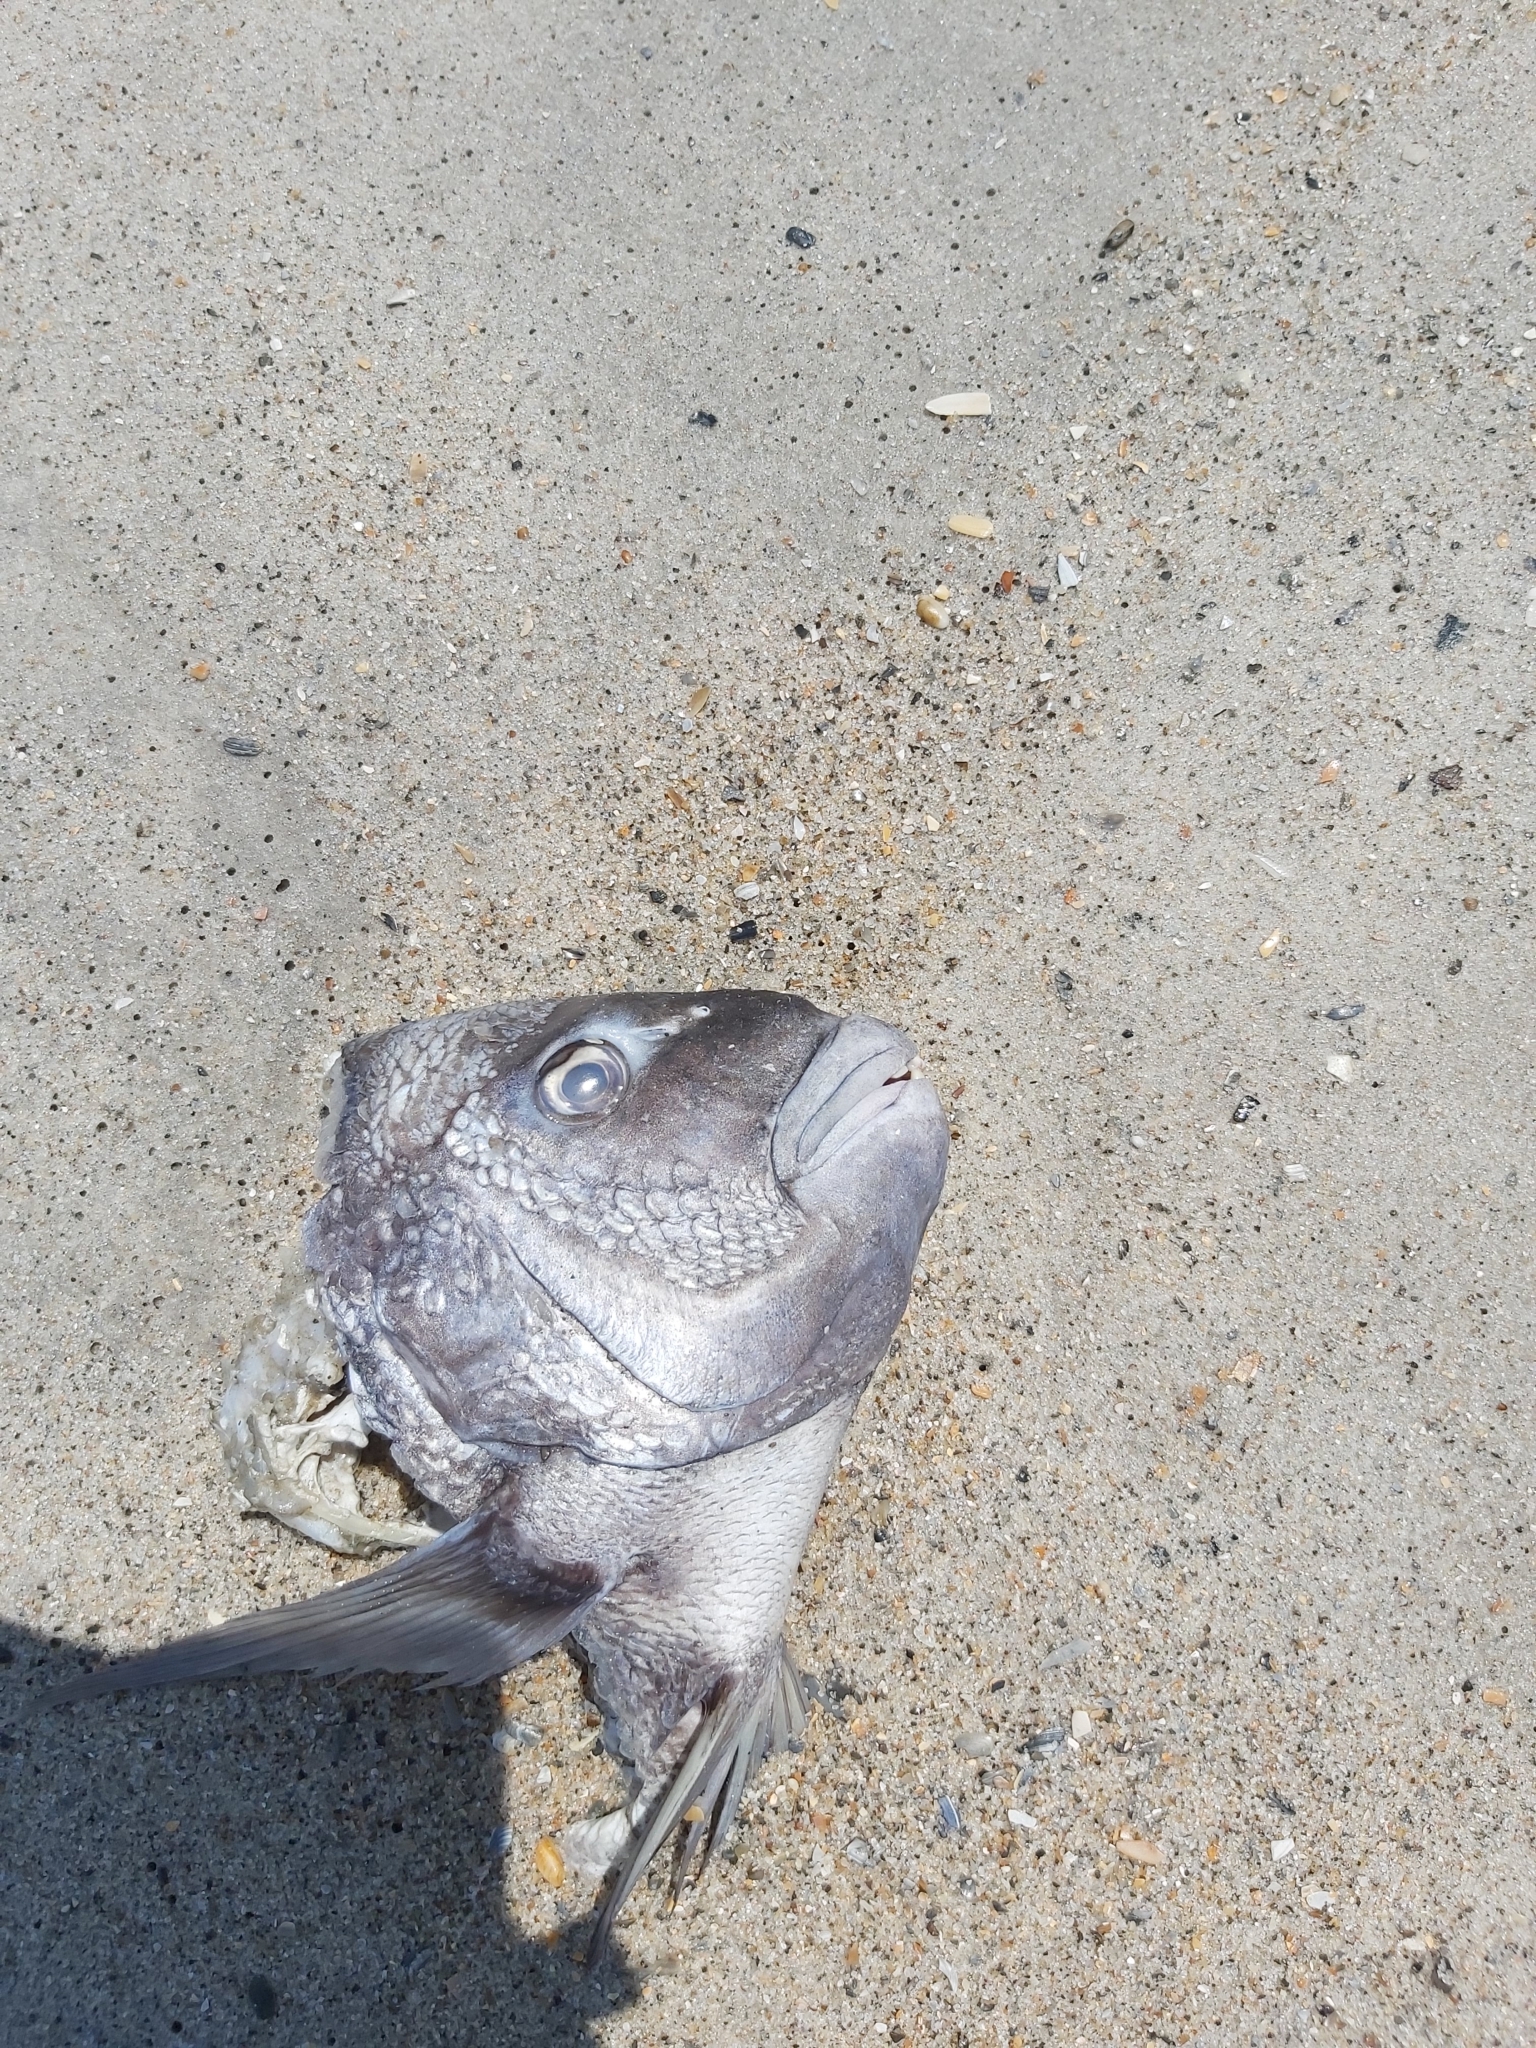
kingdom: Animalia
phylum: Chordata
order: Perciformes
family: Sparidae
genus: Archosargus
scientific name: Archosargus probatocephalus
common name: Sheepshead
